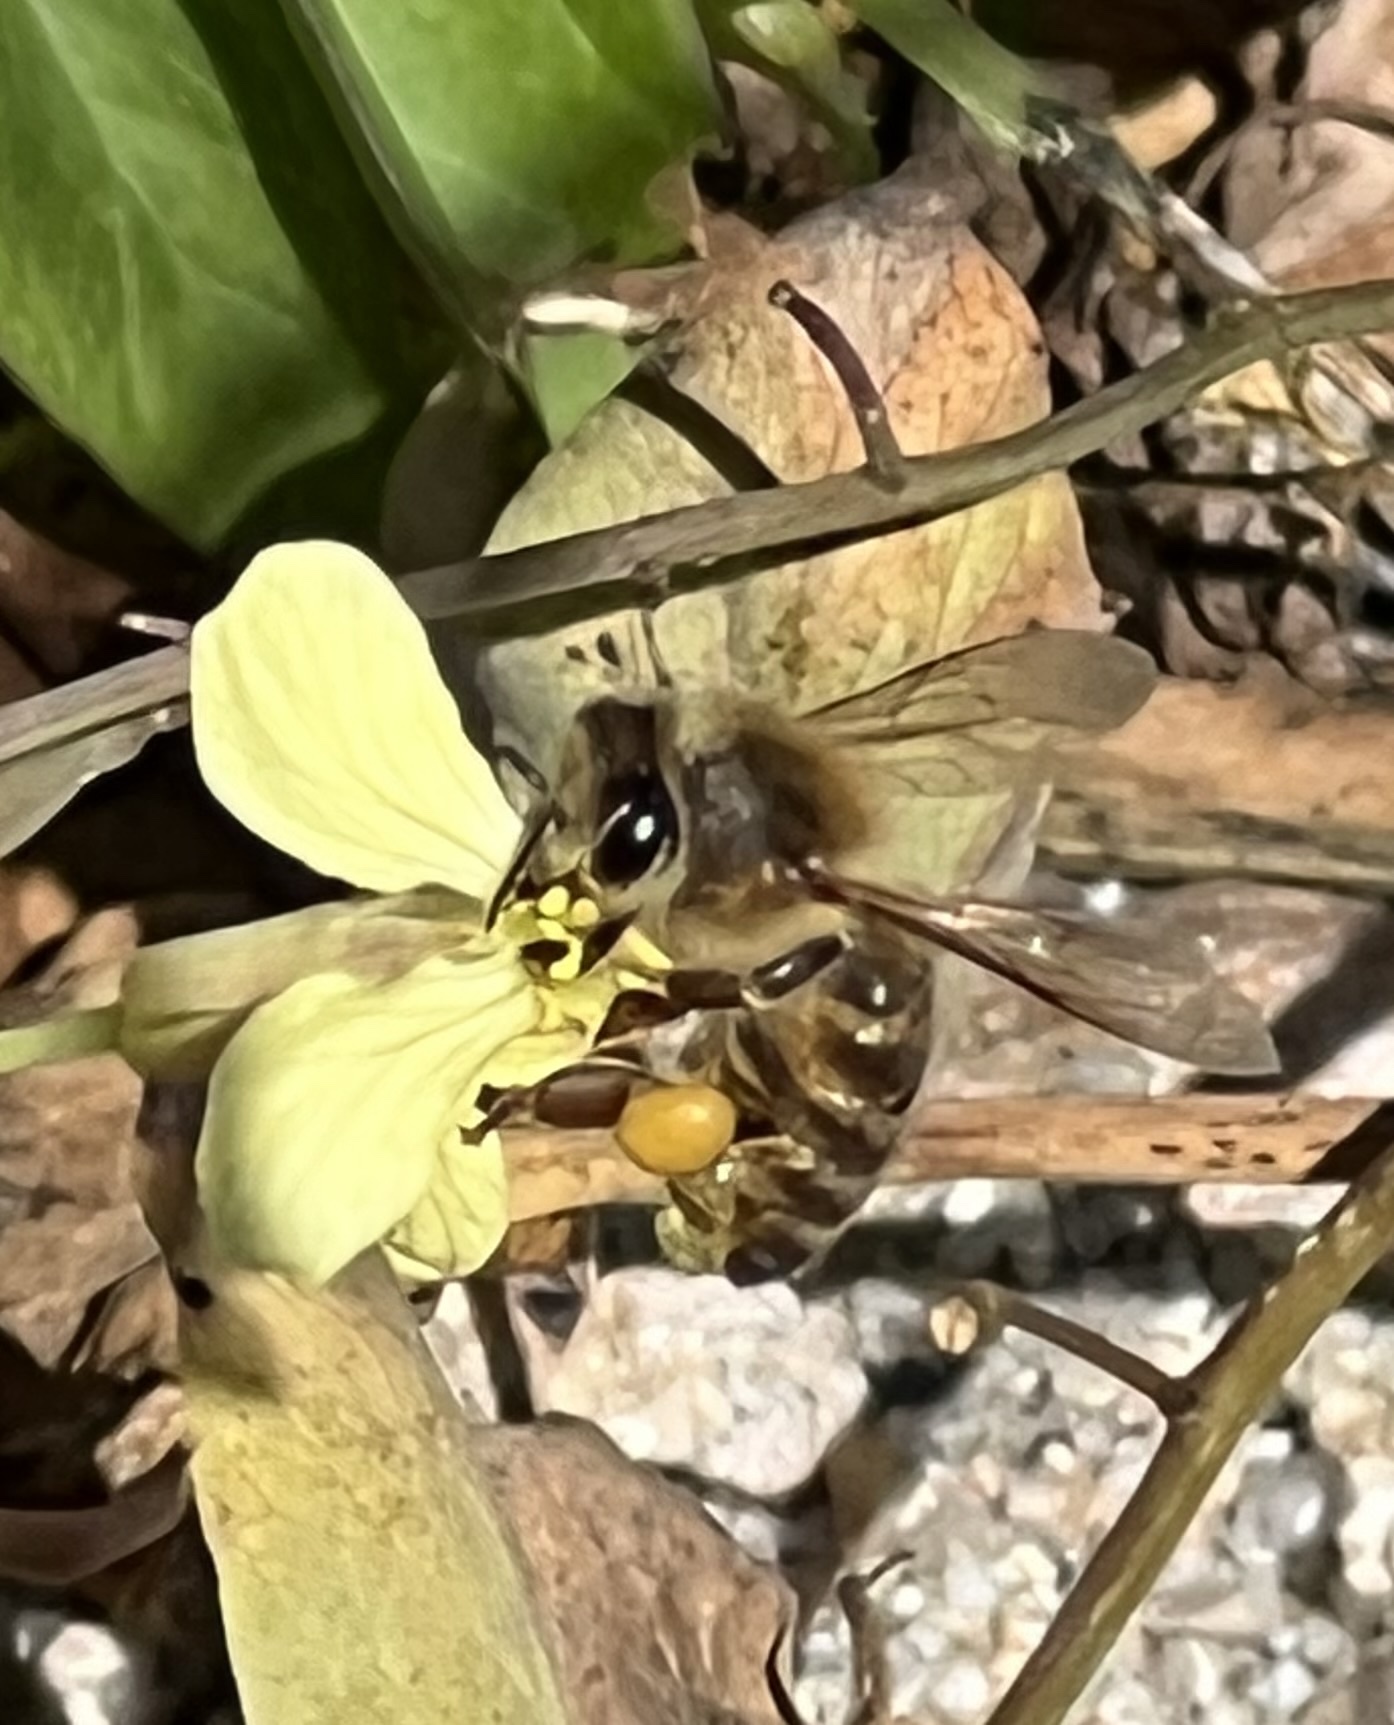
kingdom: Animalia
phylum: Arthropoda
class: Insecta
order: Hymenoptera
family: Apidae
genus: Apis
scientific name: Apis mellifera
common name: Honey bee
